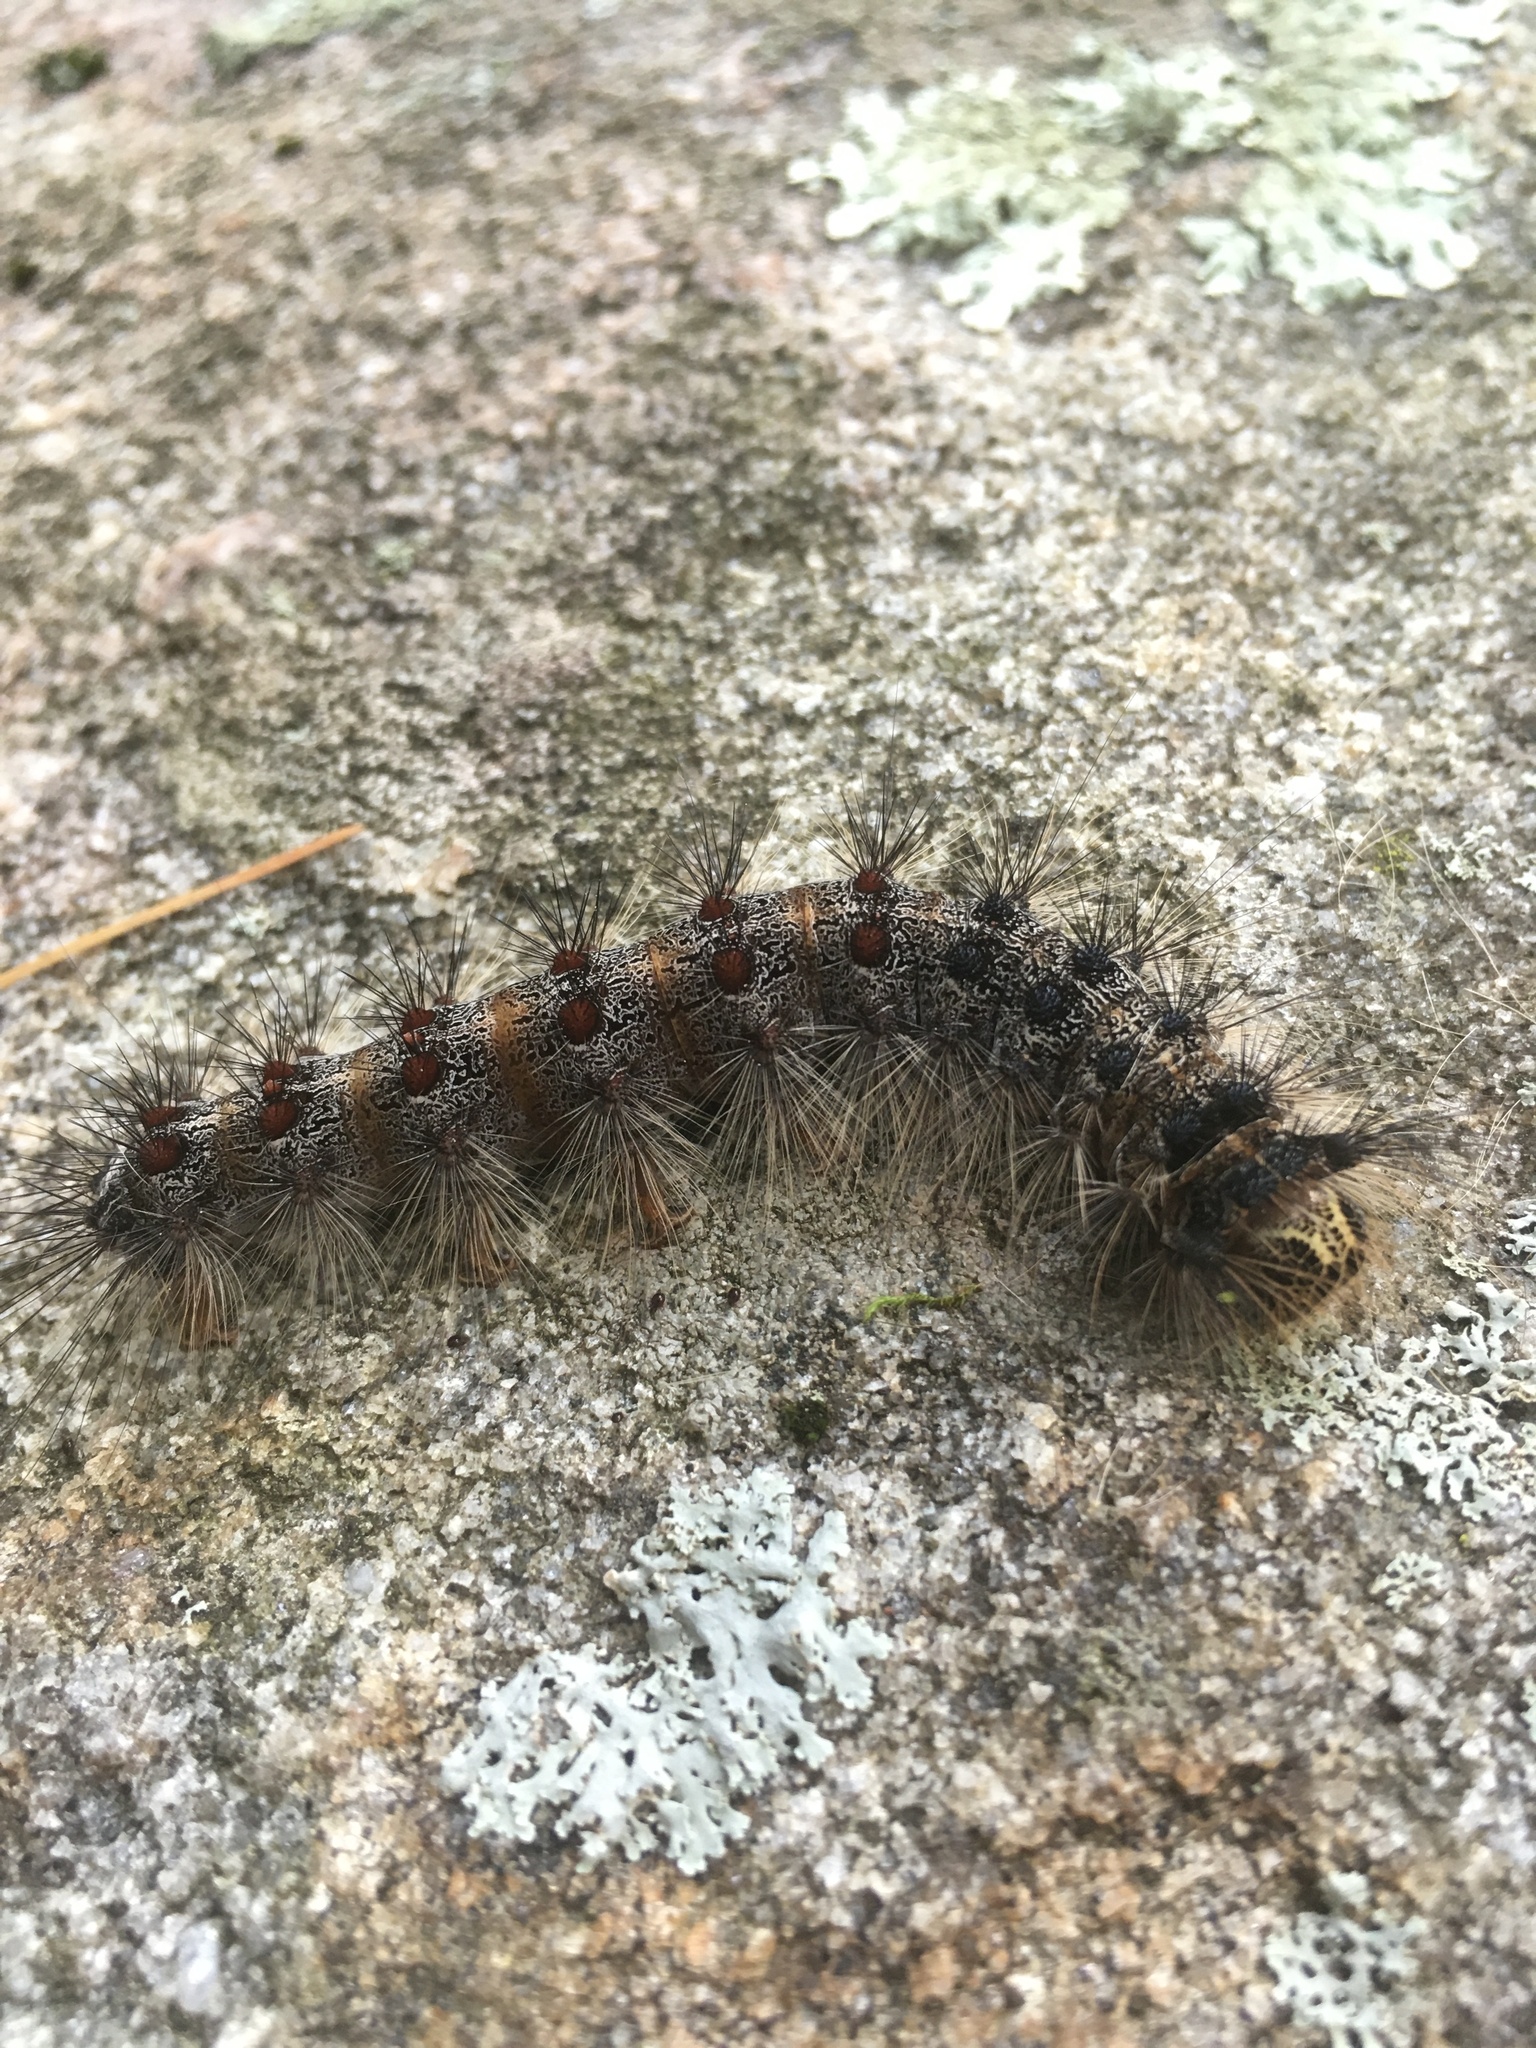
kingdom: Animalia
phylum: Arthropoda
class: Insecta
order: Lepidoptera
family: Erebidae
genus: Lymantria
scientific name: Lymantria dispar
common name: Gypsy moth
